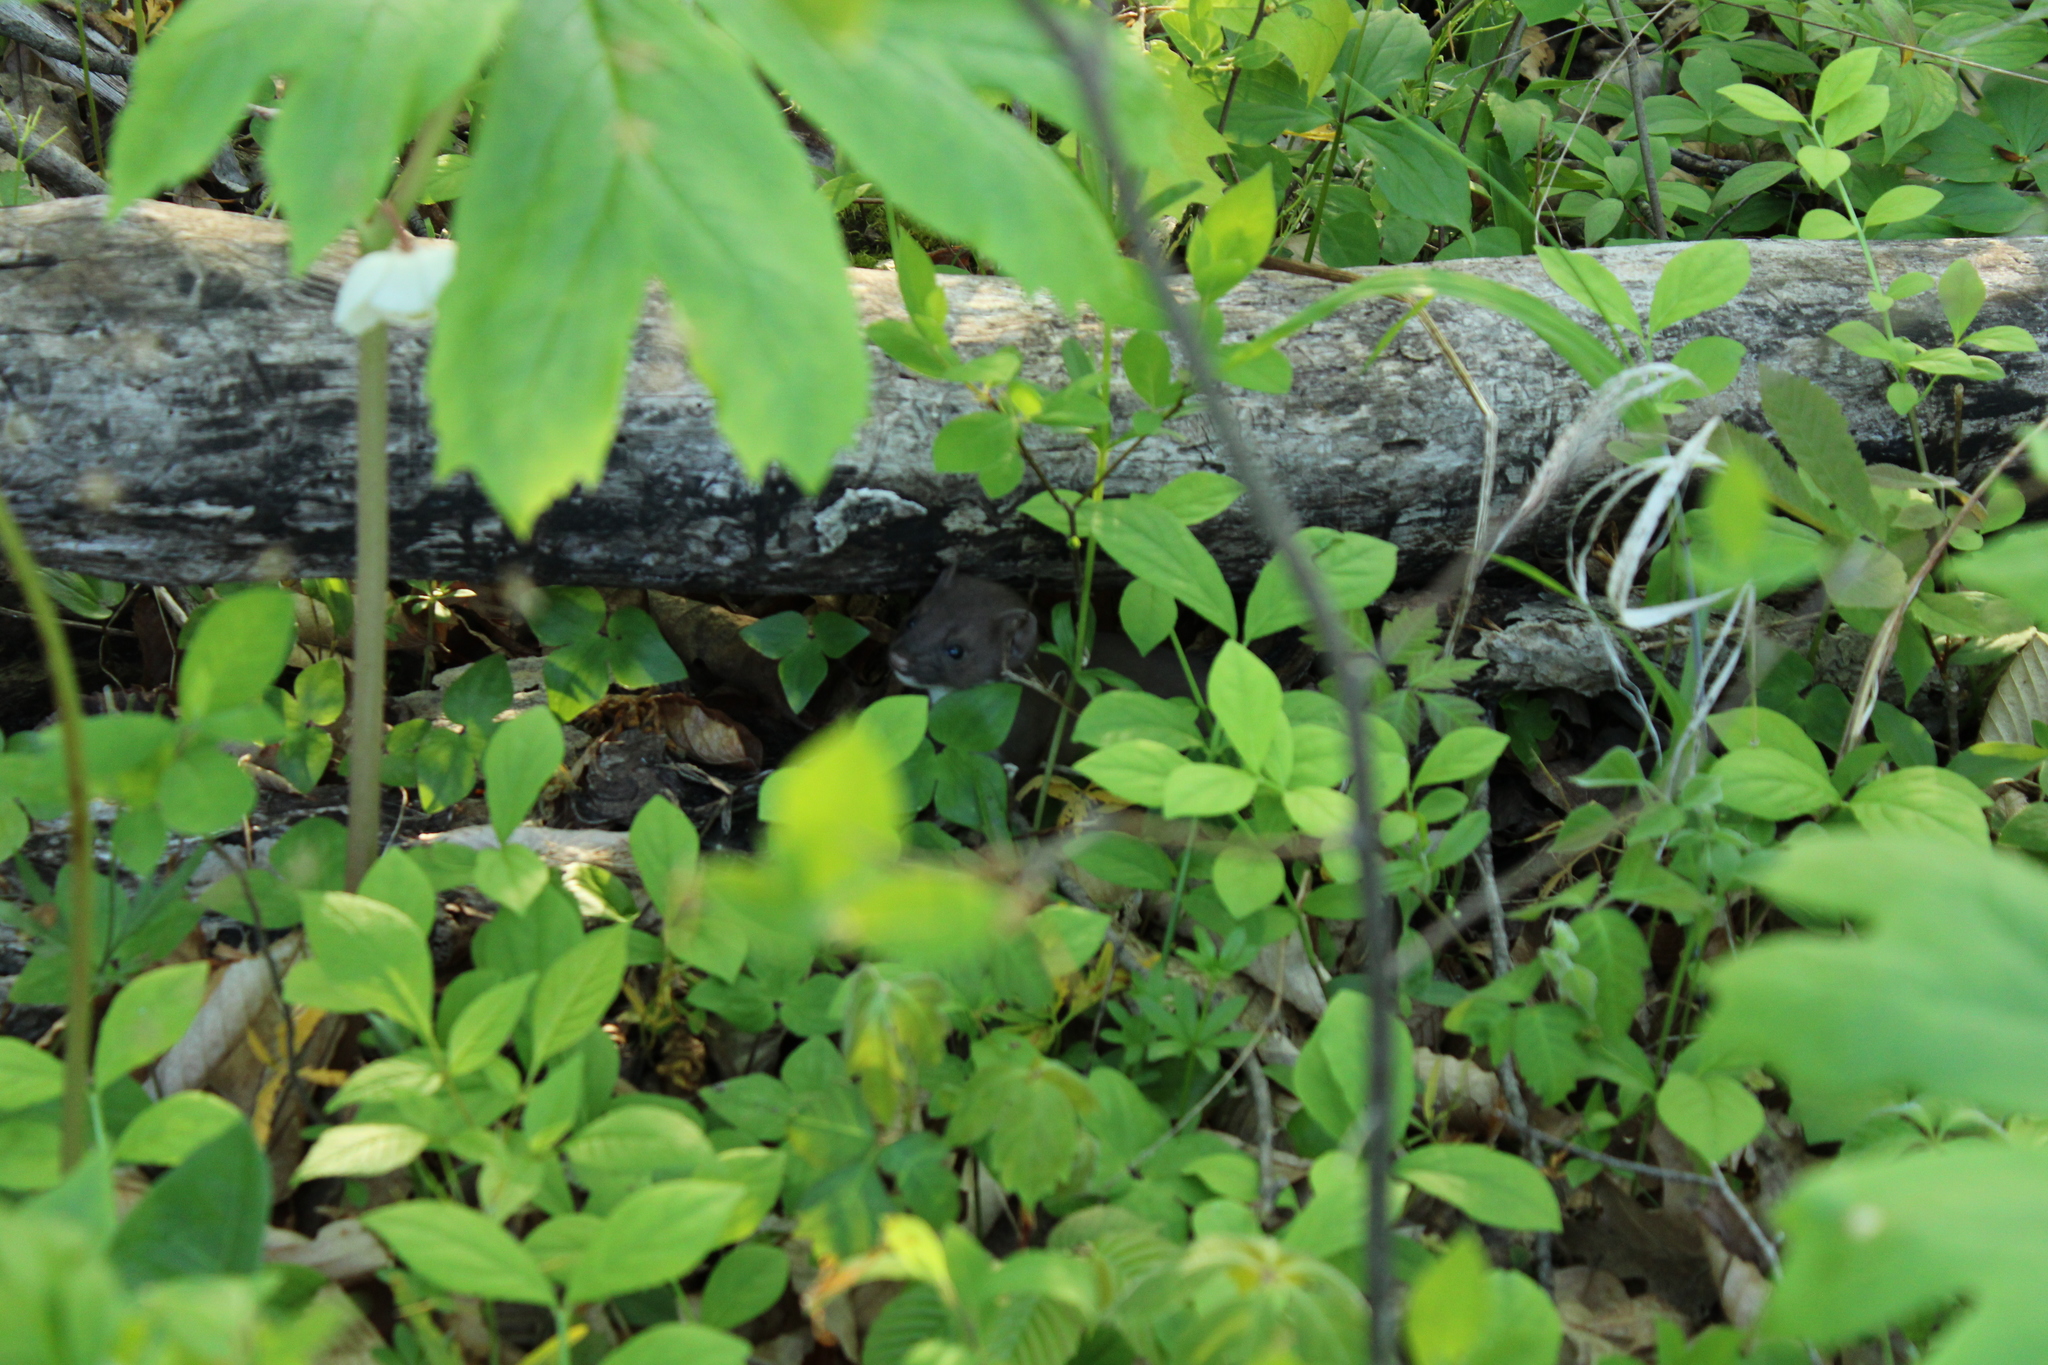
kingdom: Animalia
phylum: Chordata
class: Mammalia
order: Carnivora
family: Mustelidae
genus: Mustela
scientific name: Mustela erminea
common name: Stoat
